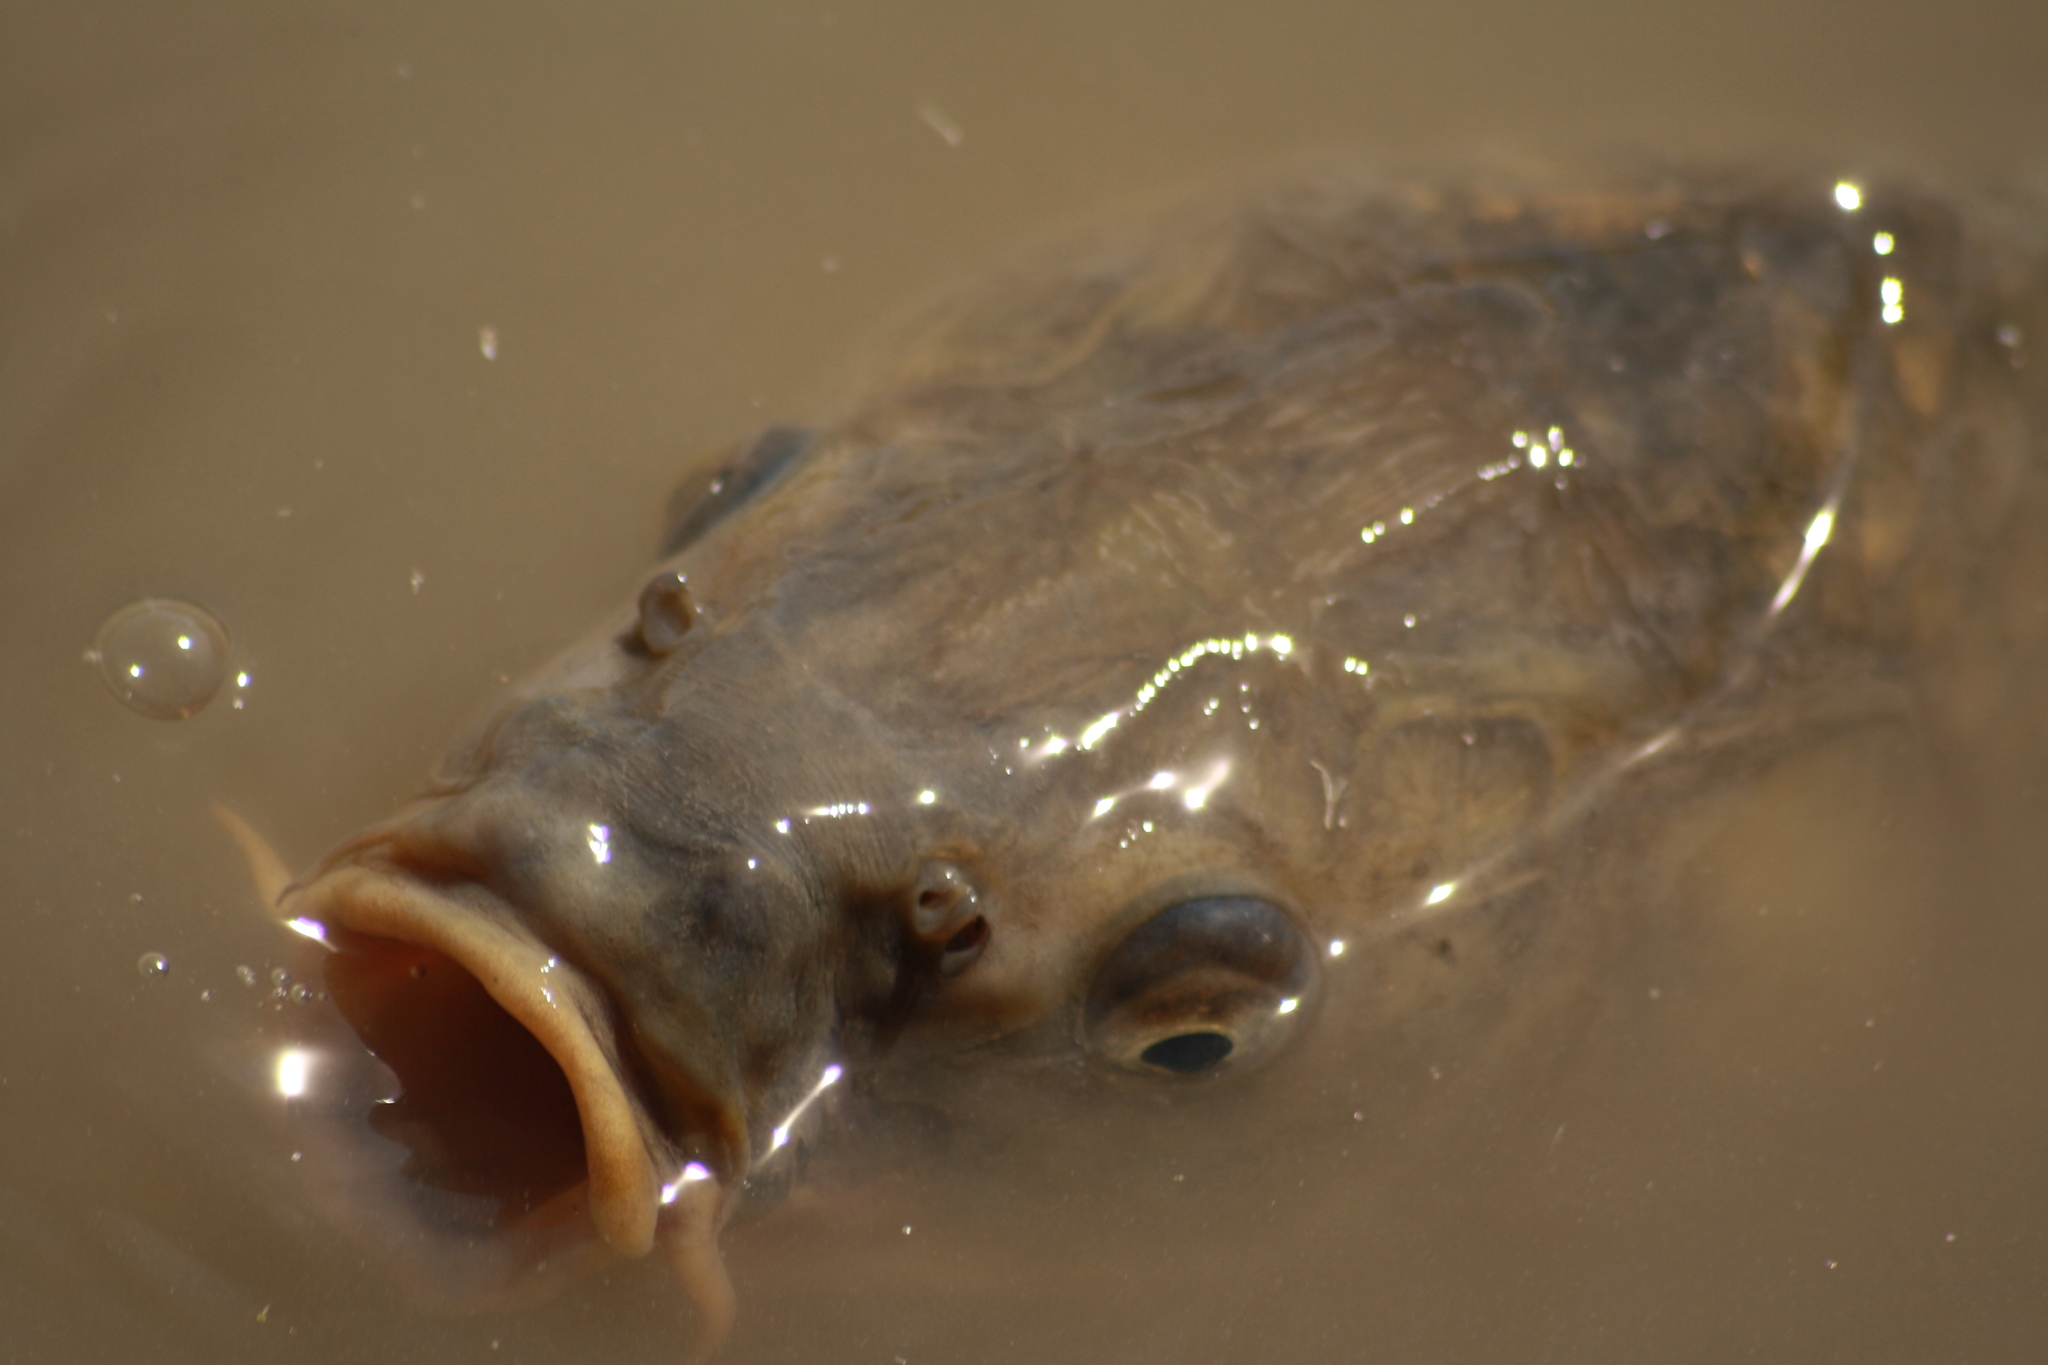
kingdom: Animalia
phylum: Chordata
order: Cypriniformes
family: Cyprinidae
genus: Cyprinus
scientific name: Cyprinus carpio
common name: Common carp
